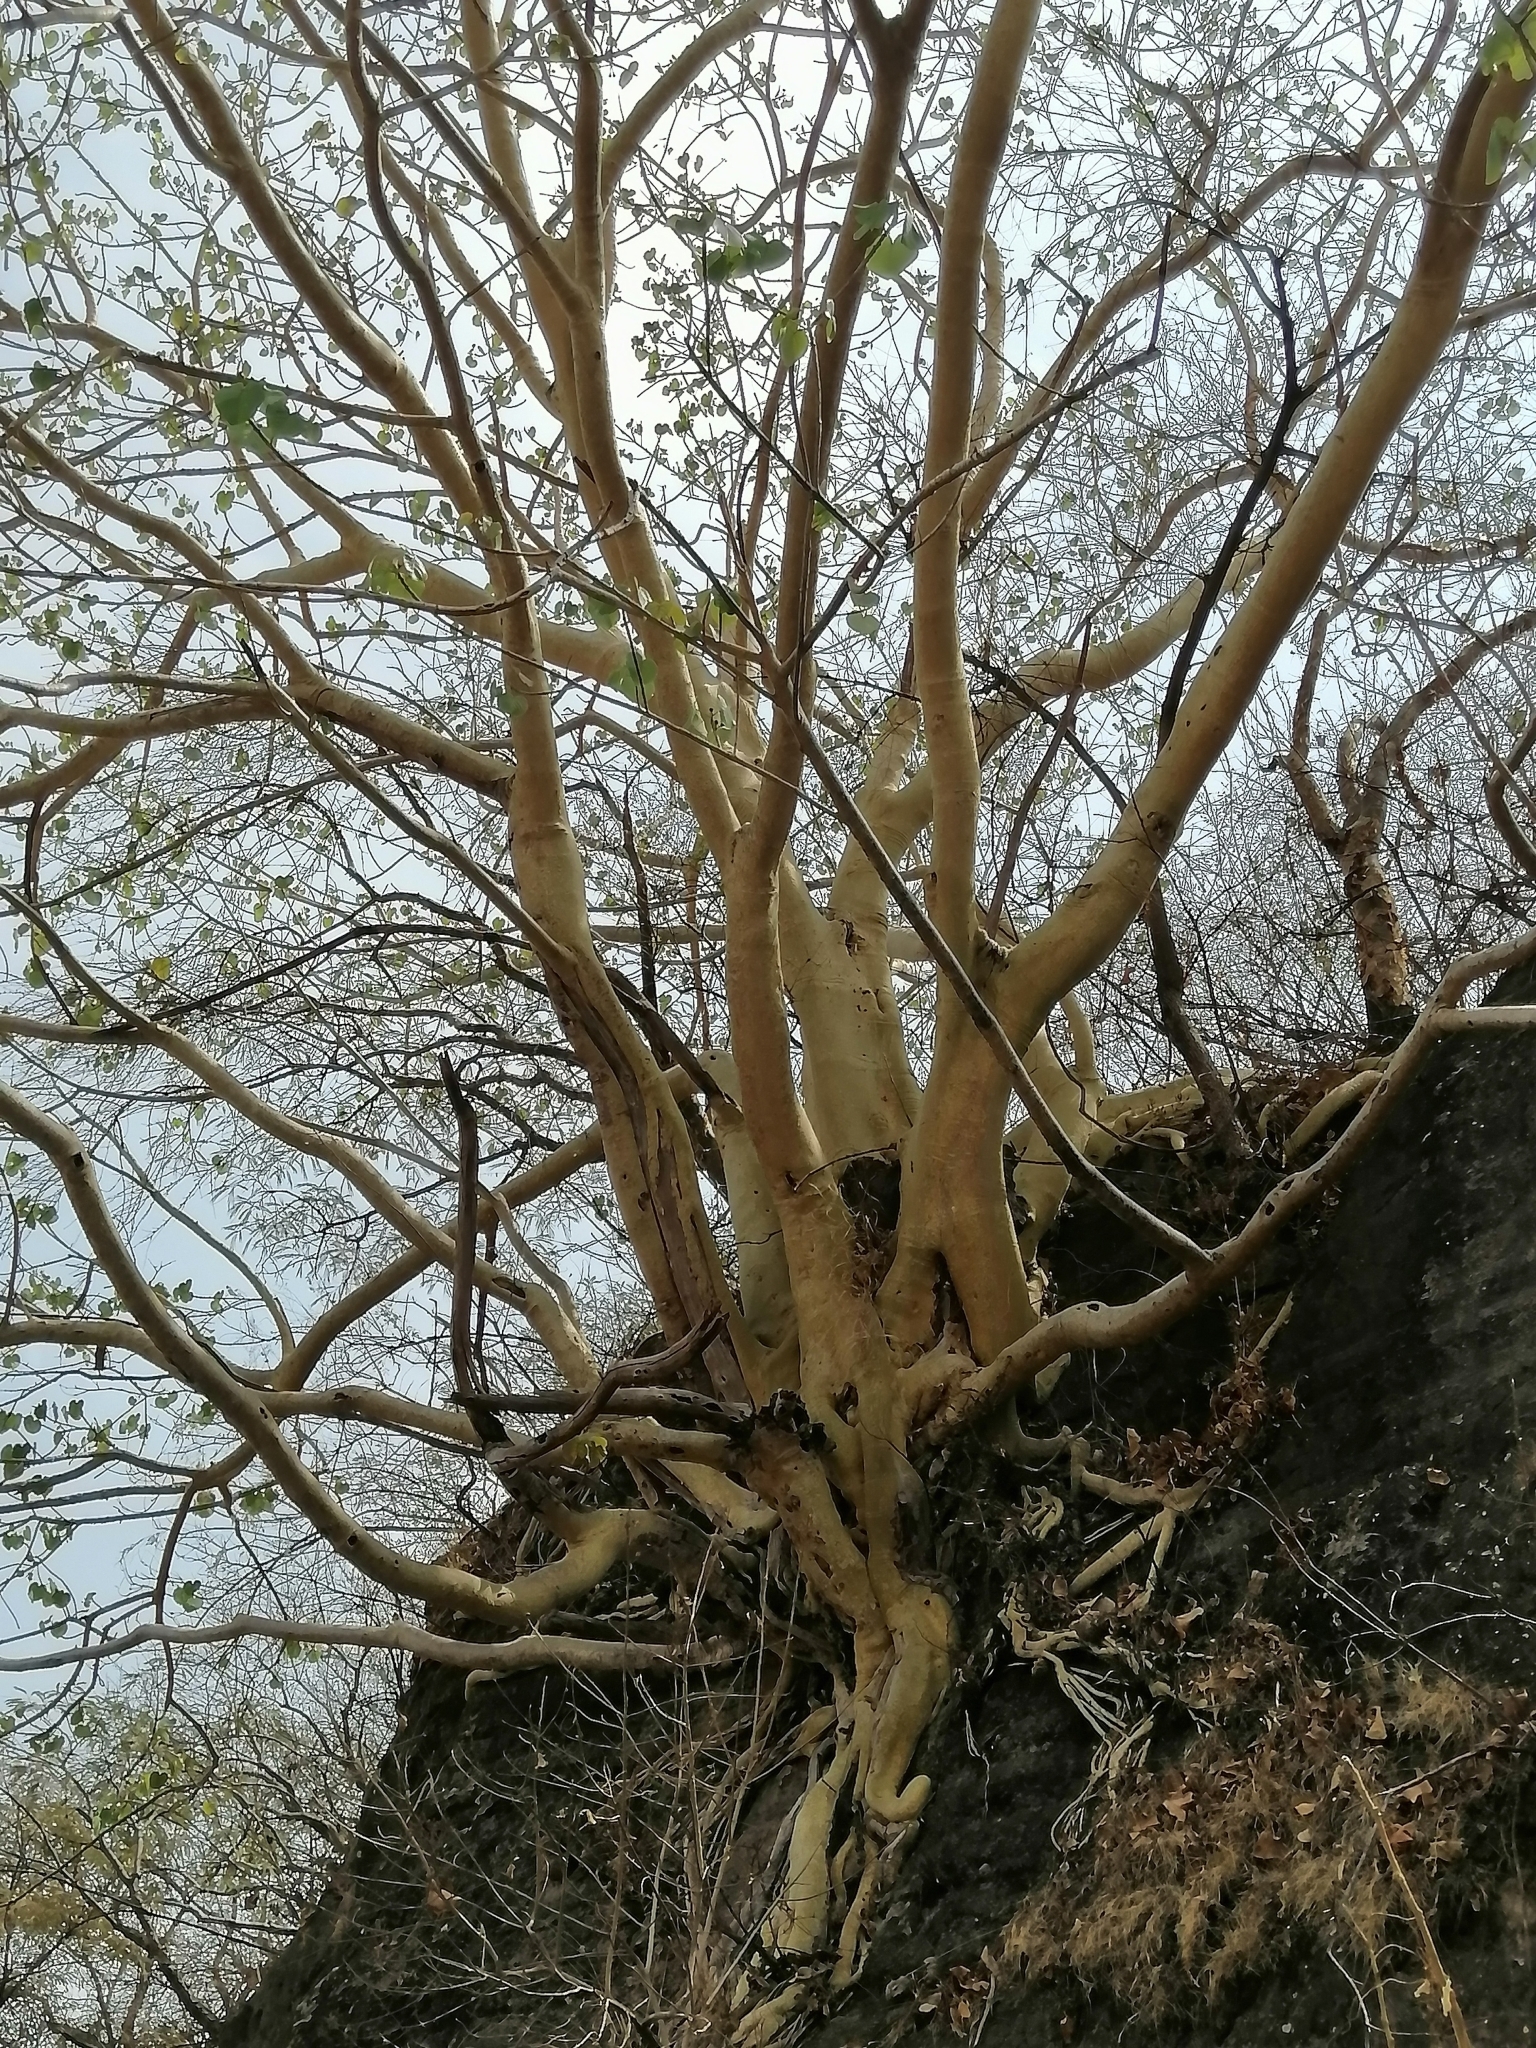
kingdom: Plantae
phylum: Tracheophyta
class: Magnoliopsida
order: Rosales
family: Moraceae
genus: Ficus
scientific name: Ficus petiolaris
